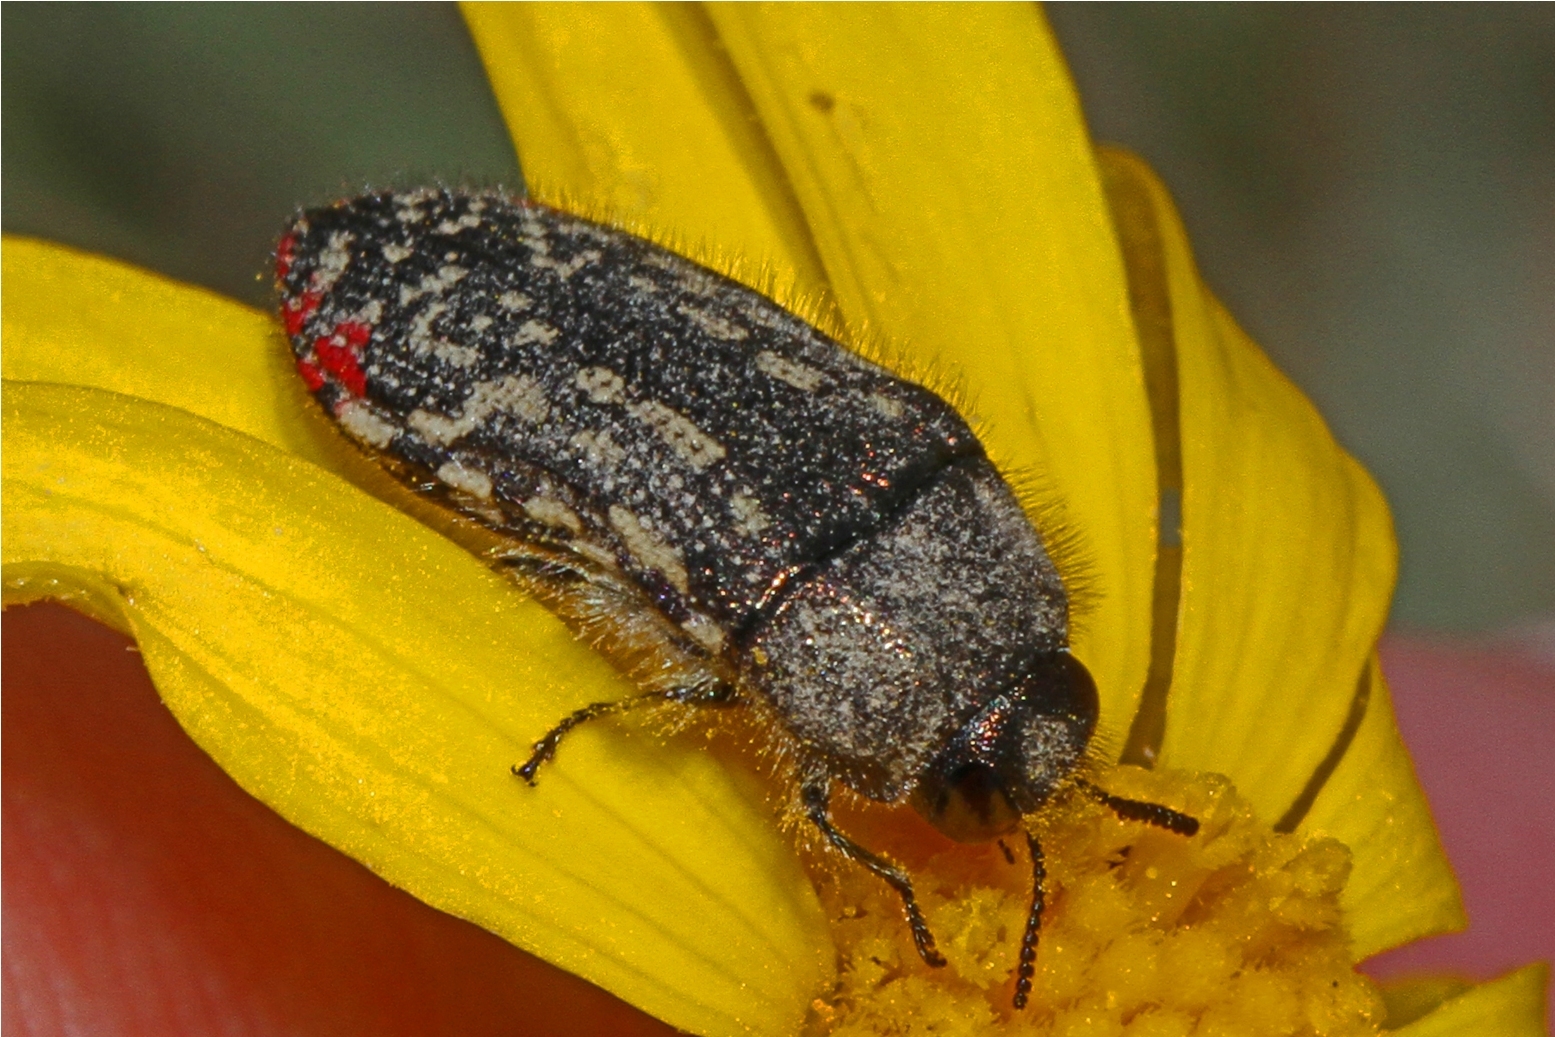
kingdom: Animalia
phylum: Arthropoda
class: Insecta
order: Coleoptera
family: Buprestidae
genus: Acmaeodera
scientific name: Acmaeodera miliaris
